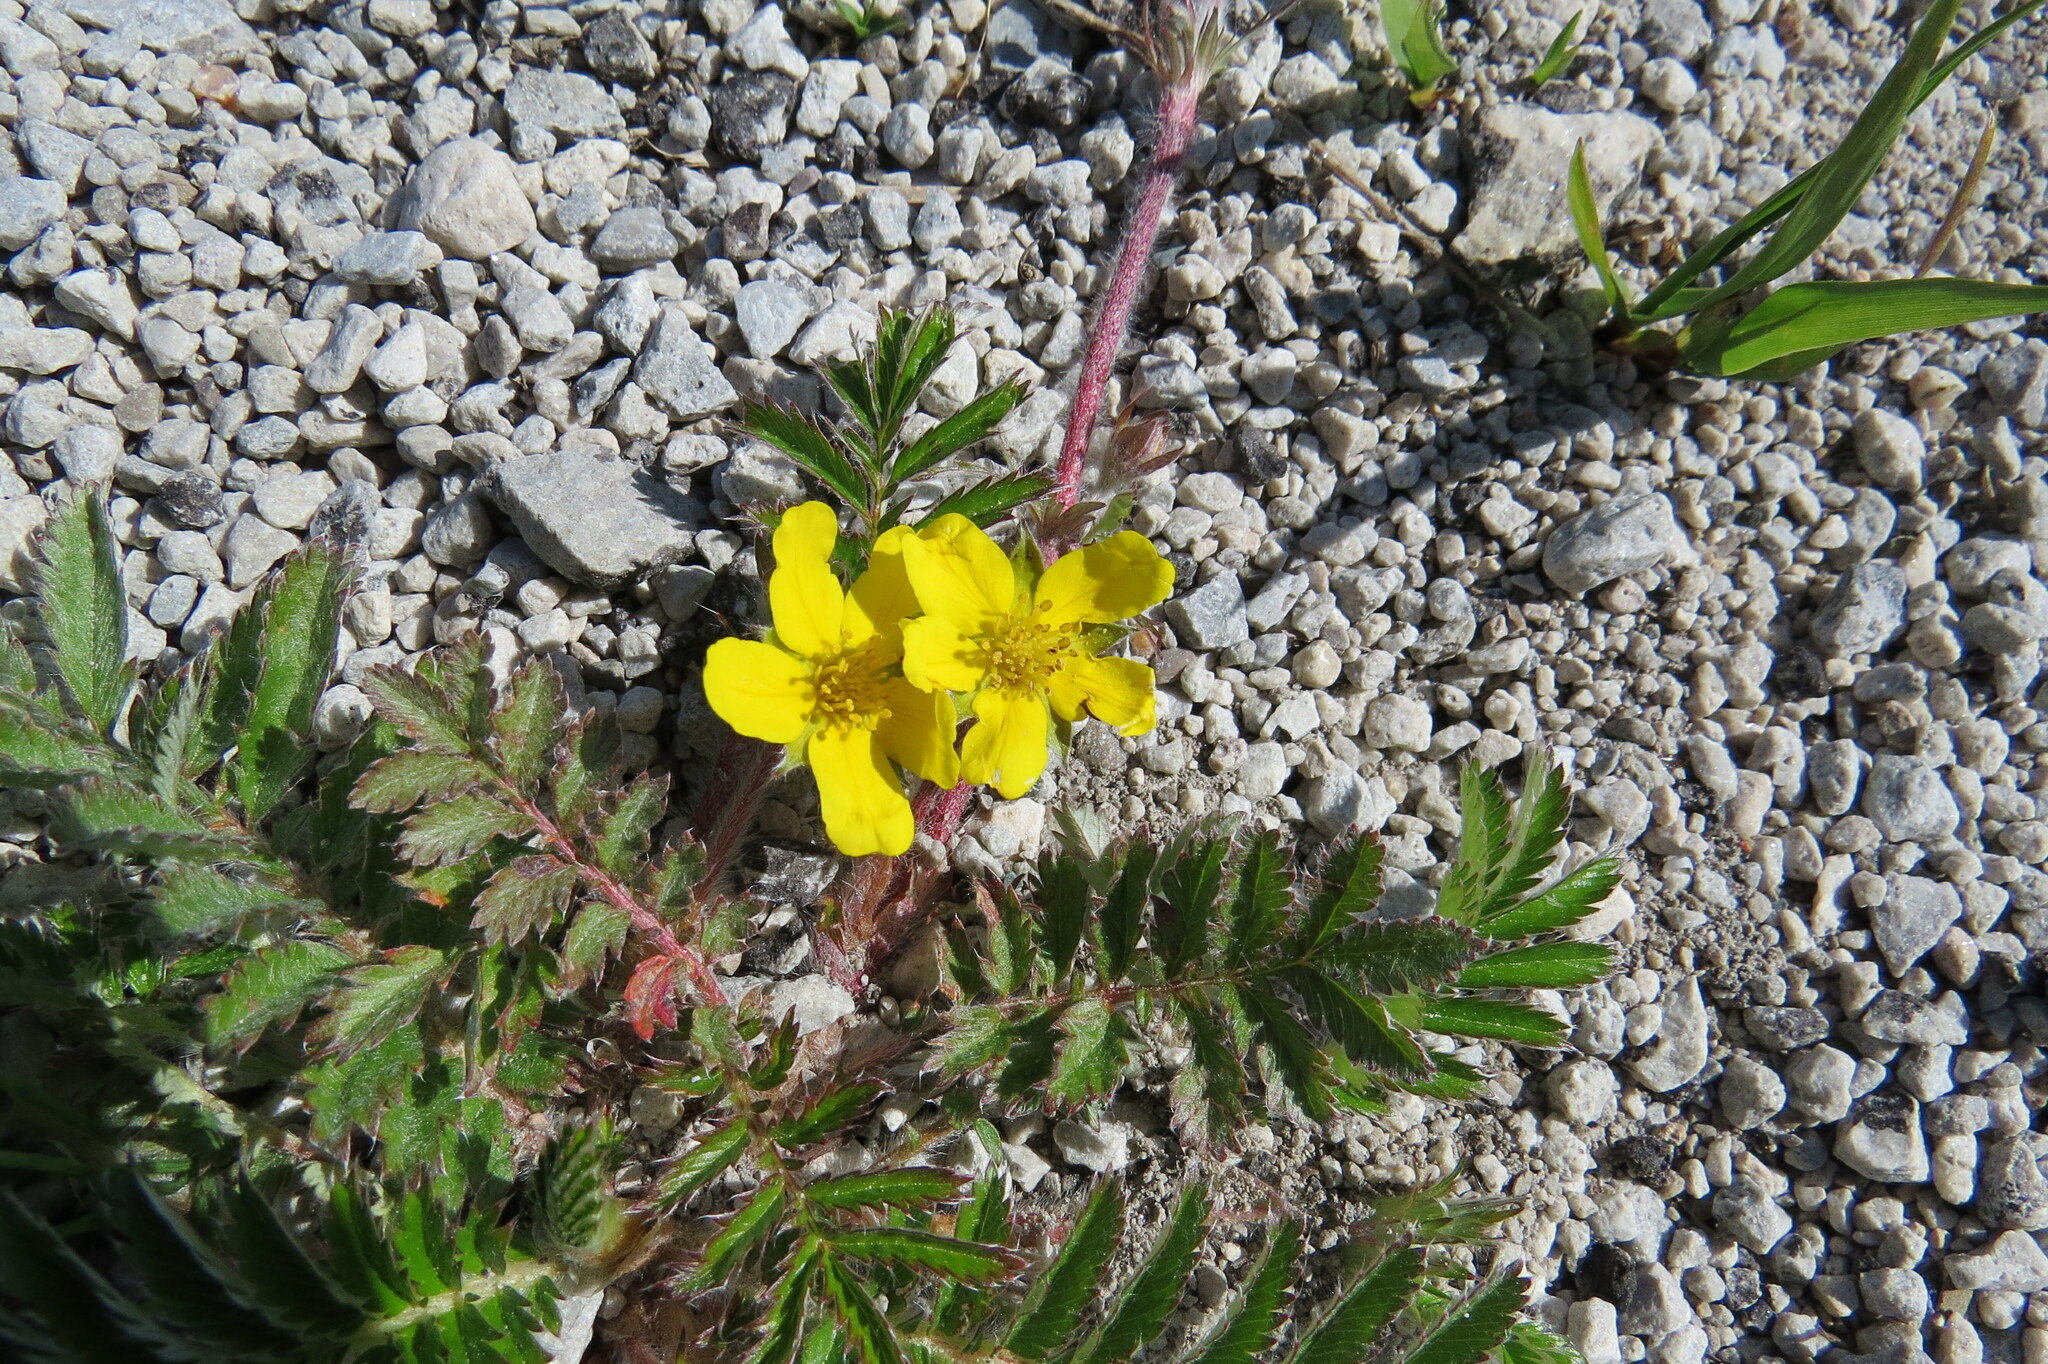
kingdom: Plantae
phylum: Tracheophyta
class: Magnoliopsida
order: Rosales
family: Rosaceae
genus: Argentina
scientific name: Argentina anserina
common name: Common silverweed
